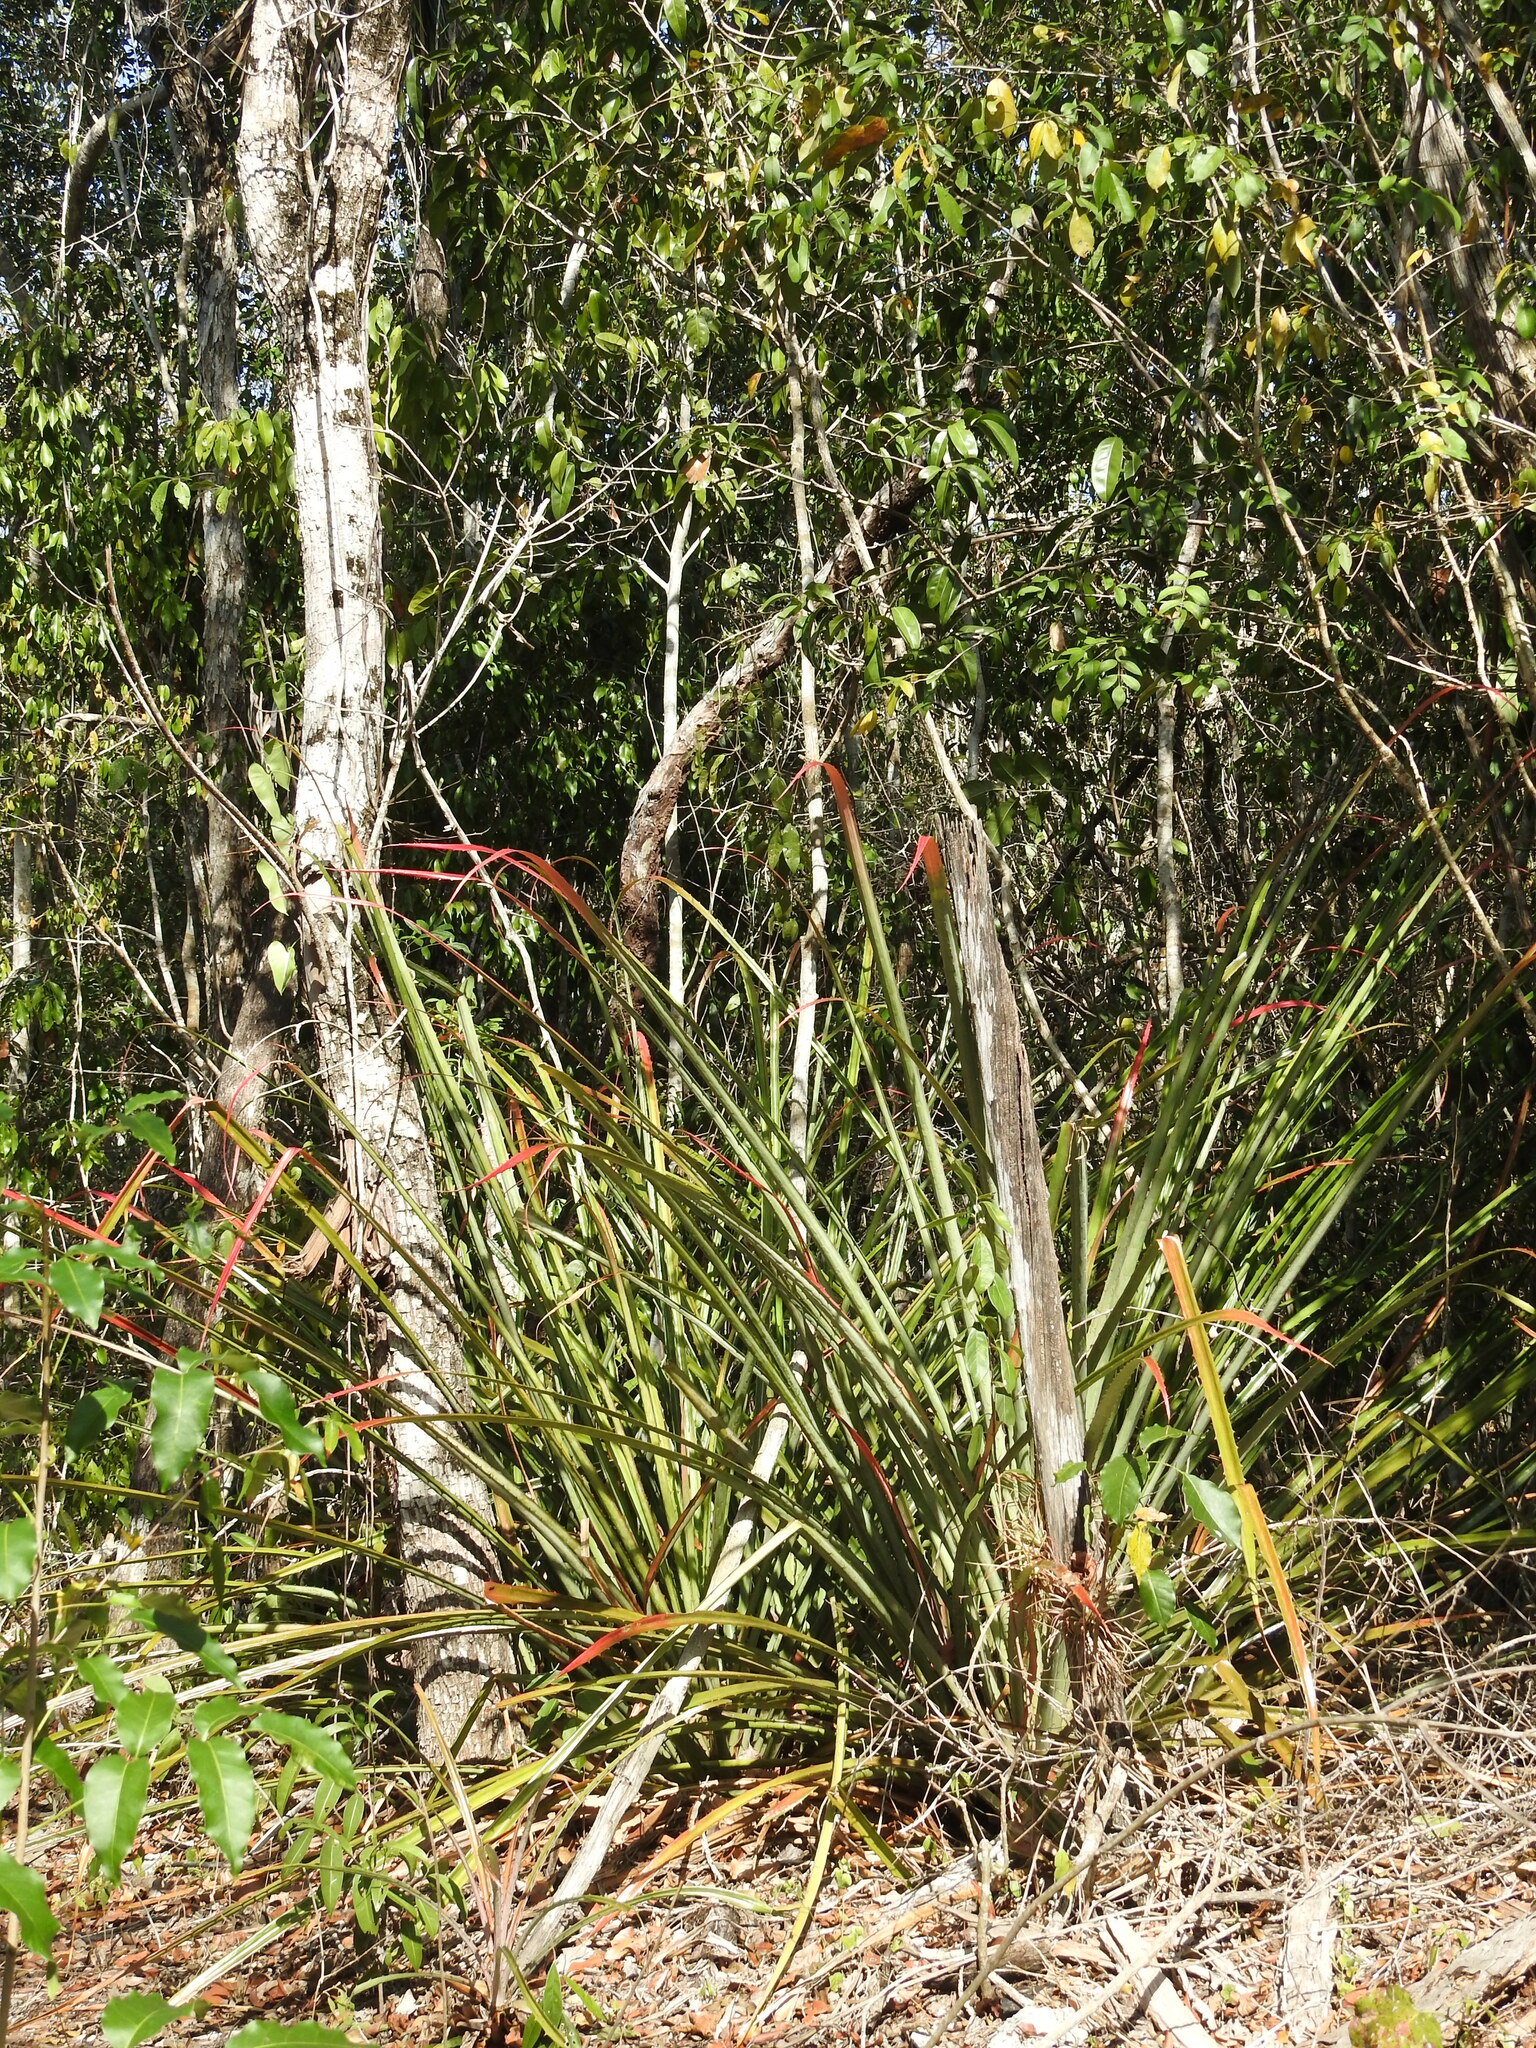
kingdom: Plantae
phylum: Tracheophyta
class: Liliopsida
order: Poales
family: Bromeliaceae
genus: Bromelia
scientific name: Bromelia pinguin
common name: Pinguin
